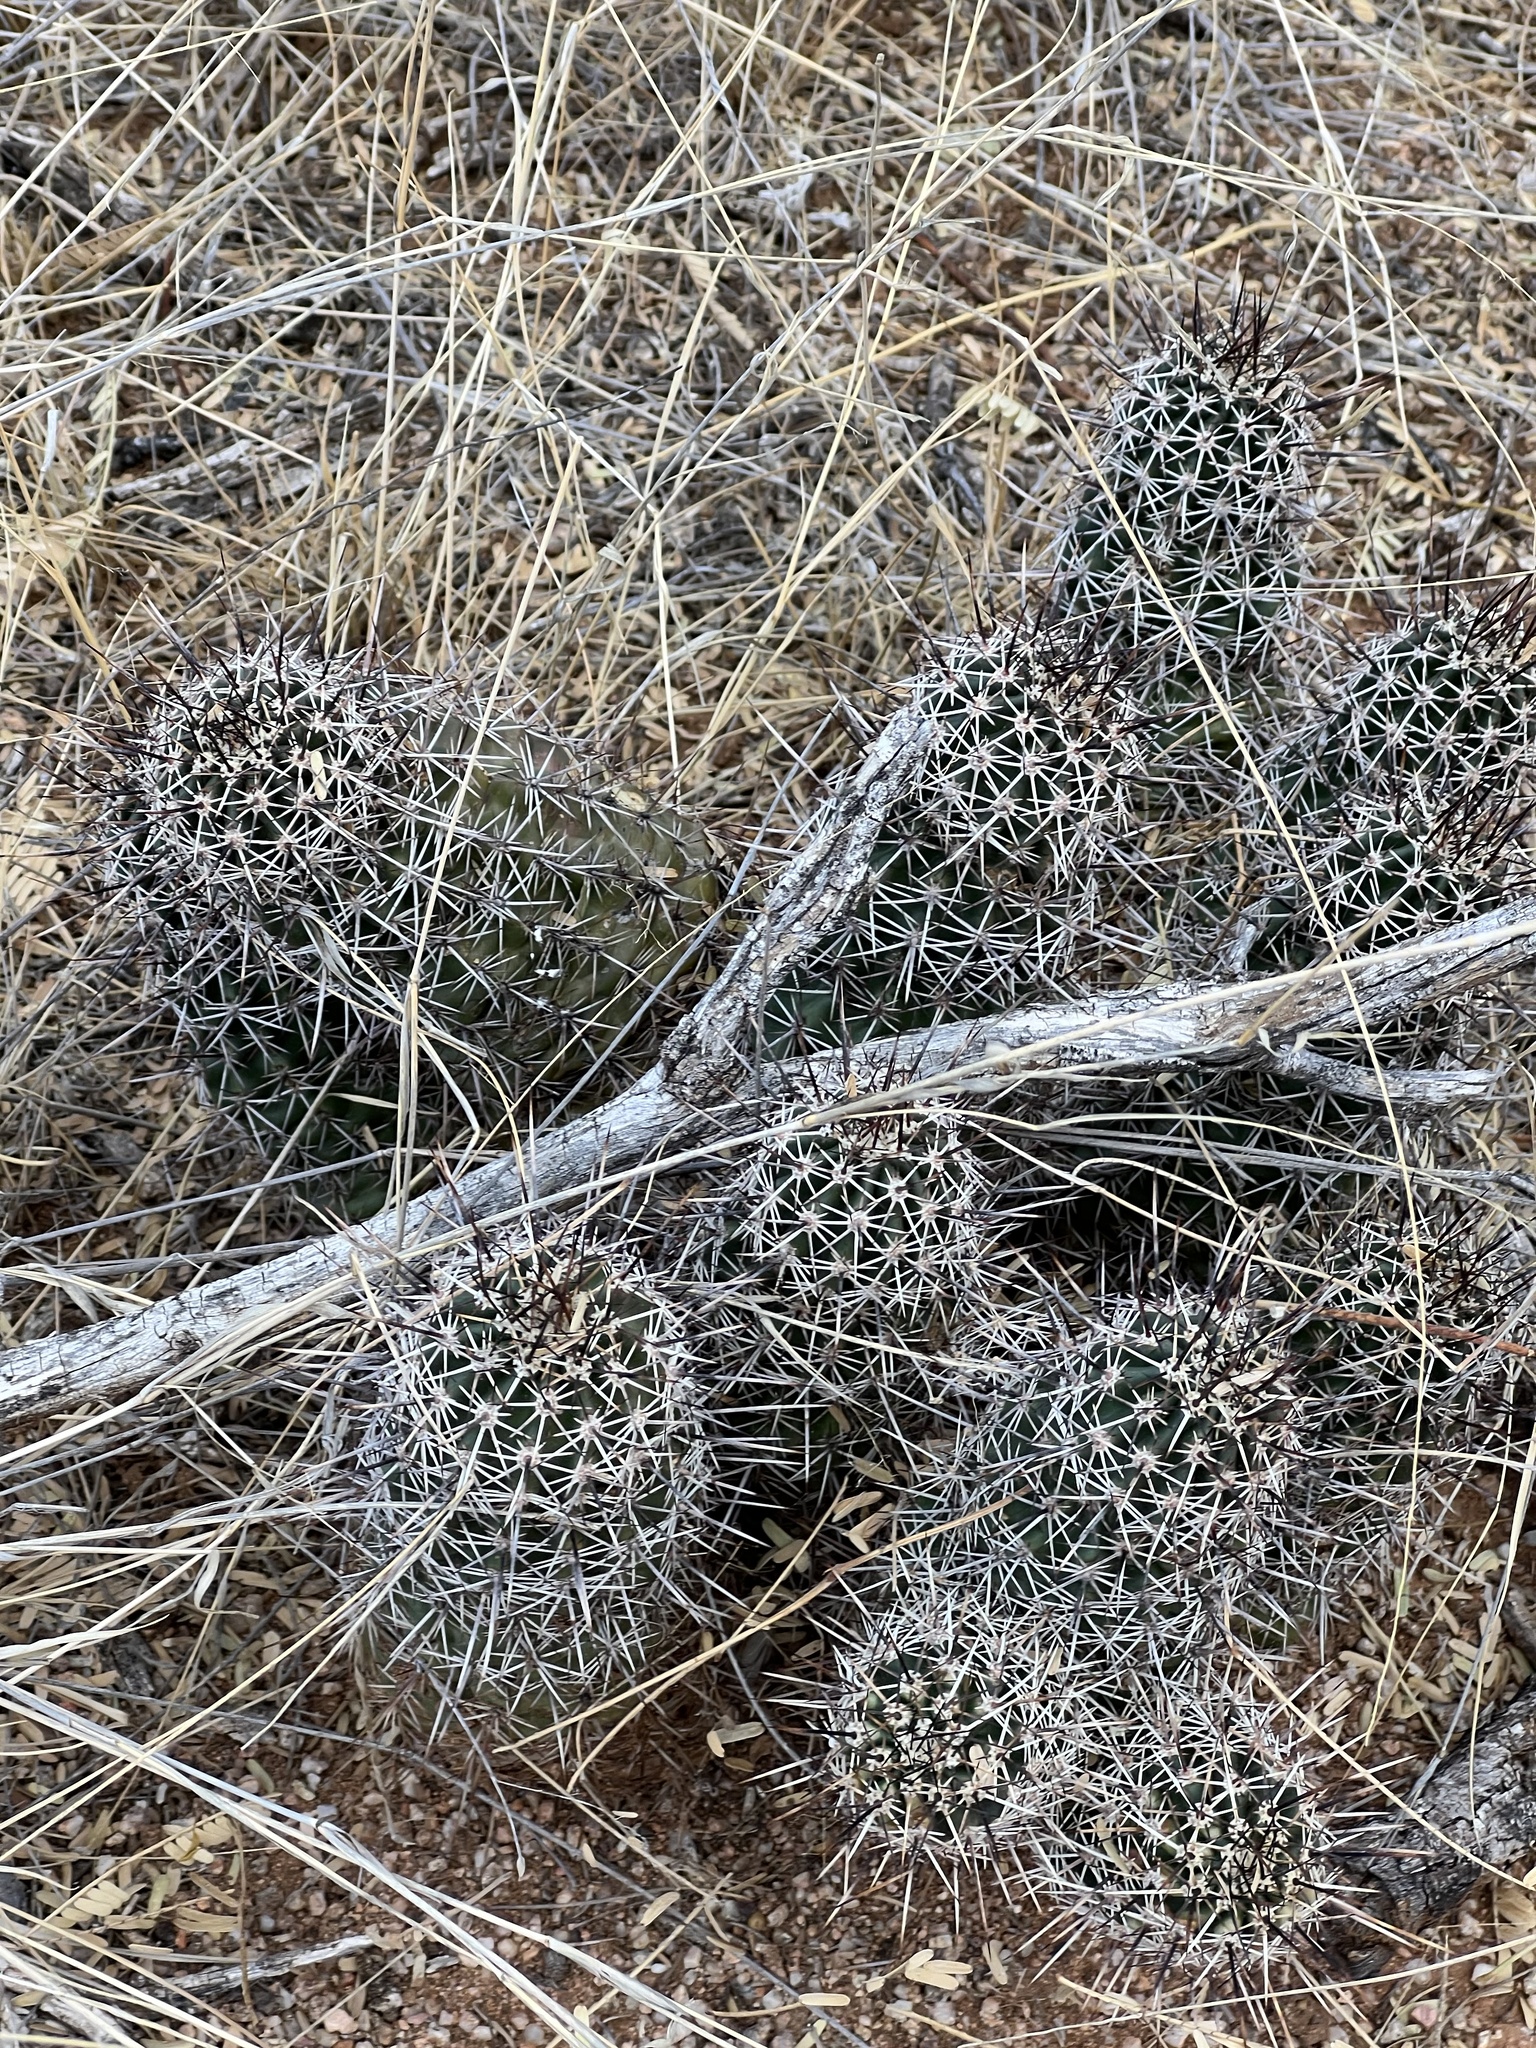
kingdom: Plantae
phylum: Tracheophyta
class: Magnoliopsida
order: Caryophyllales
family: Cactaceae
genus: Echinocereus
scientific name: Echinocereus fasciculatus
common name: Bundle hedgehog
